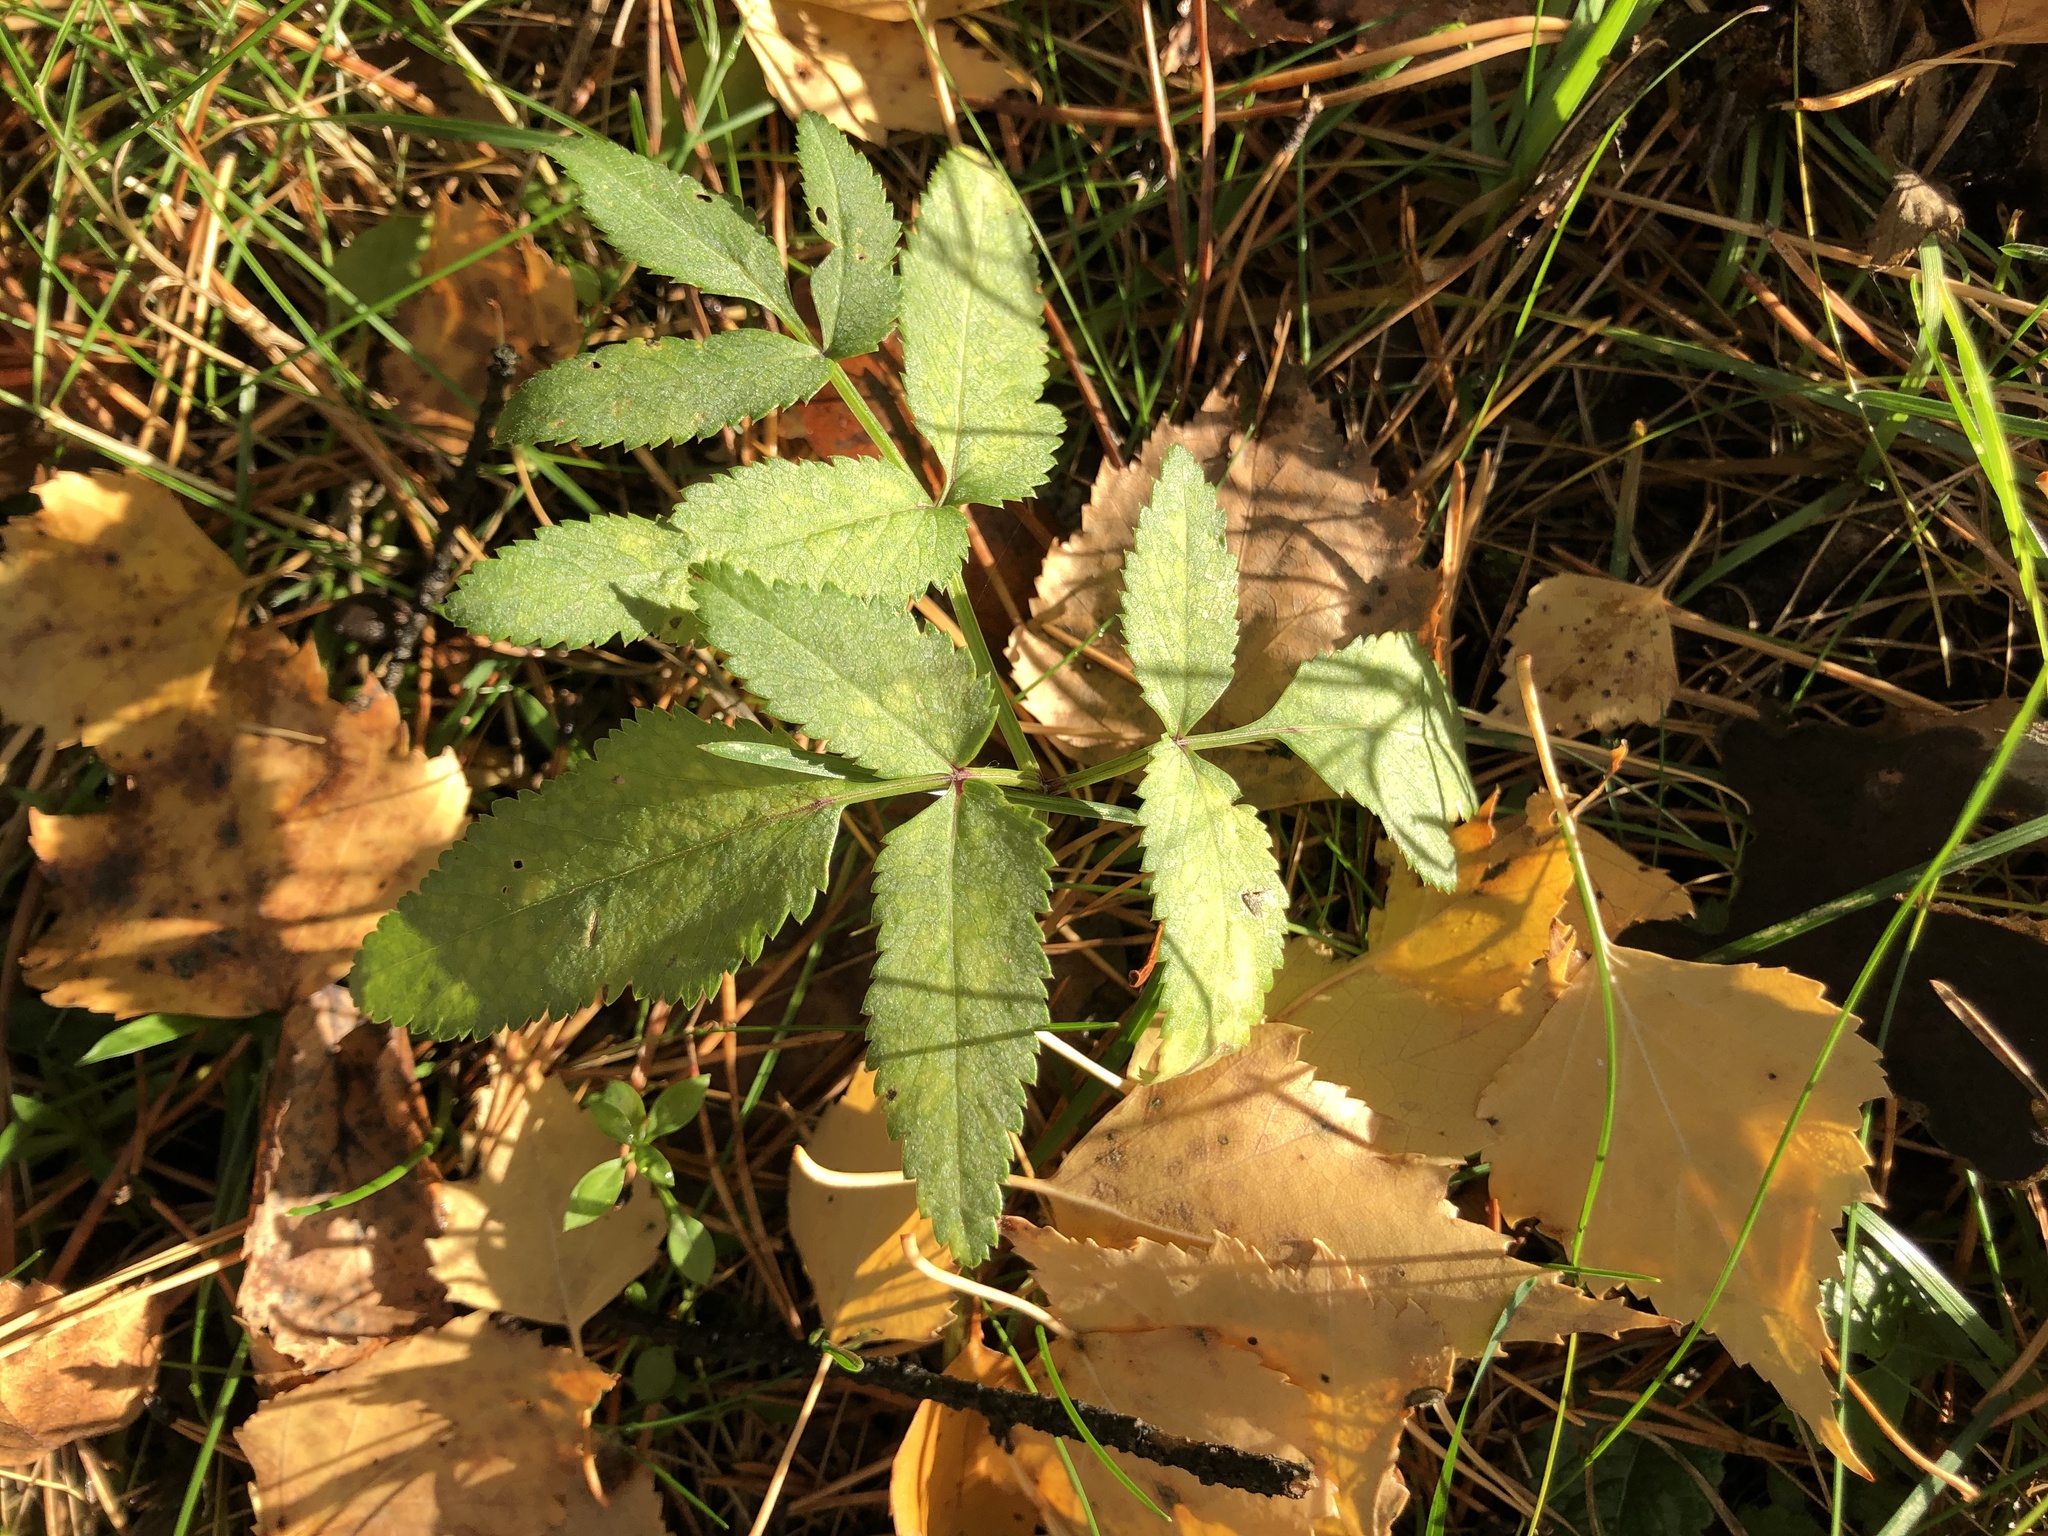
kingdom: Plantae
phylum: Tracheophyta
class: Magnoliopsida
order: Apiales
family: Apiaceae
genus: Angelica
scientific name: Angelica sylvestris
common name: Wild angelica
